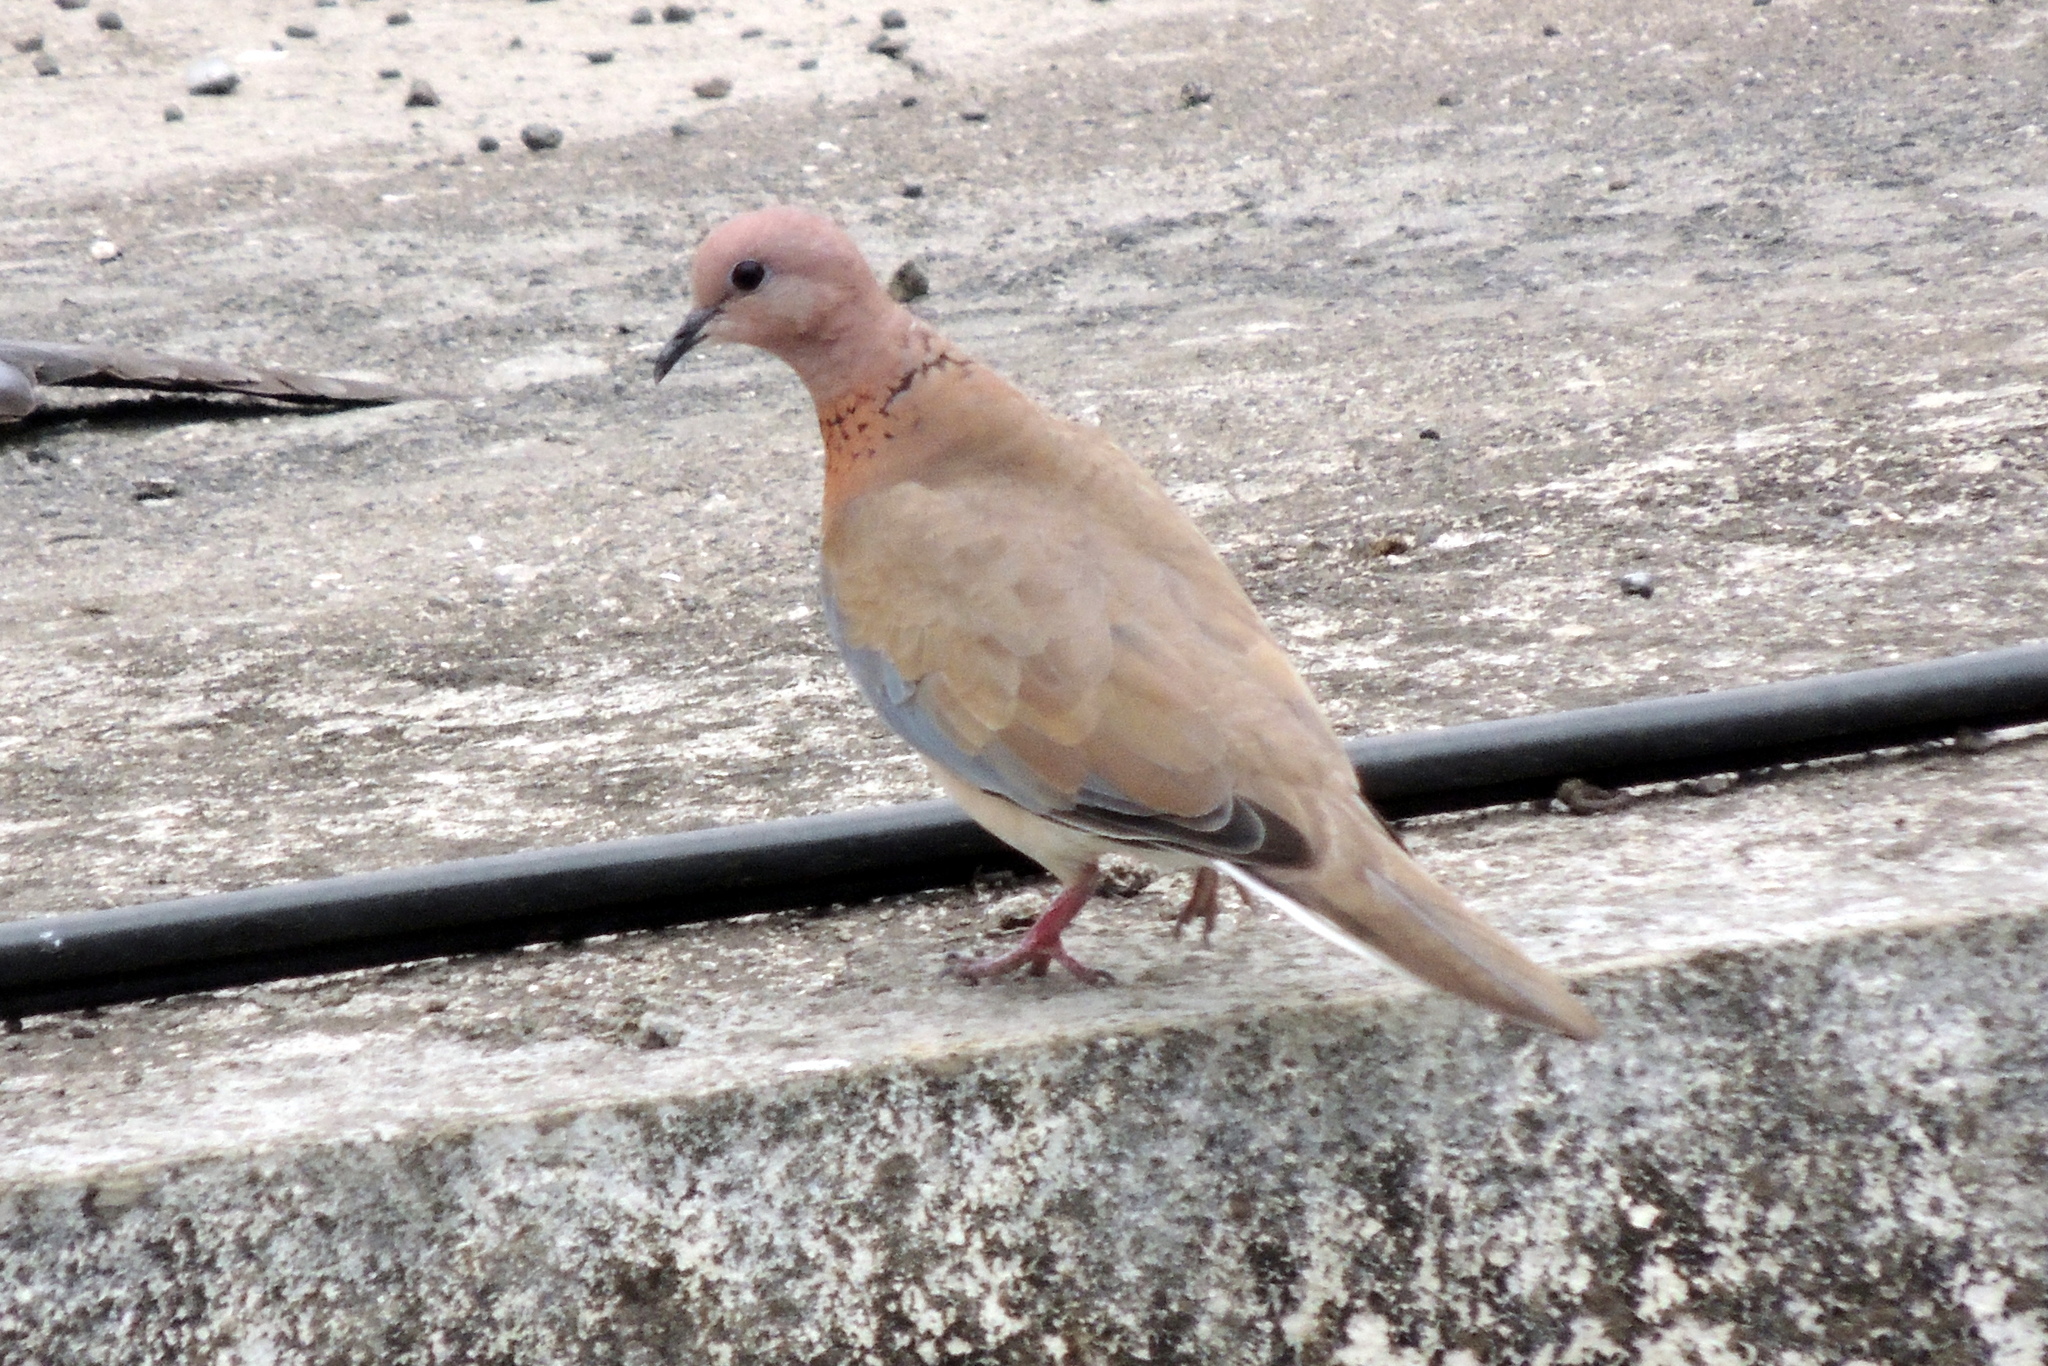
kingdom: Animalia
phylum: Chordata
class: Aves
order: Columbiformes
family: Columbidae
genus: Spilopelia
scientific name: Spilopelia senegalensis
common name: Laughing dove
